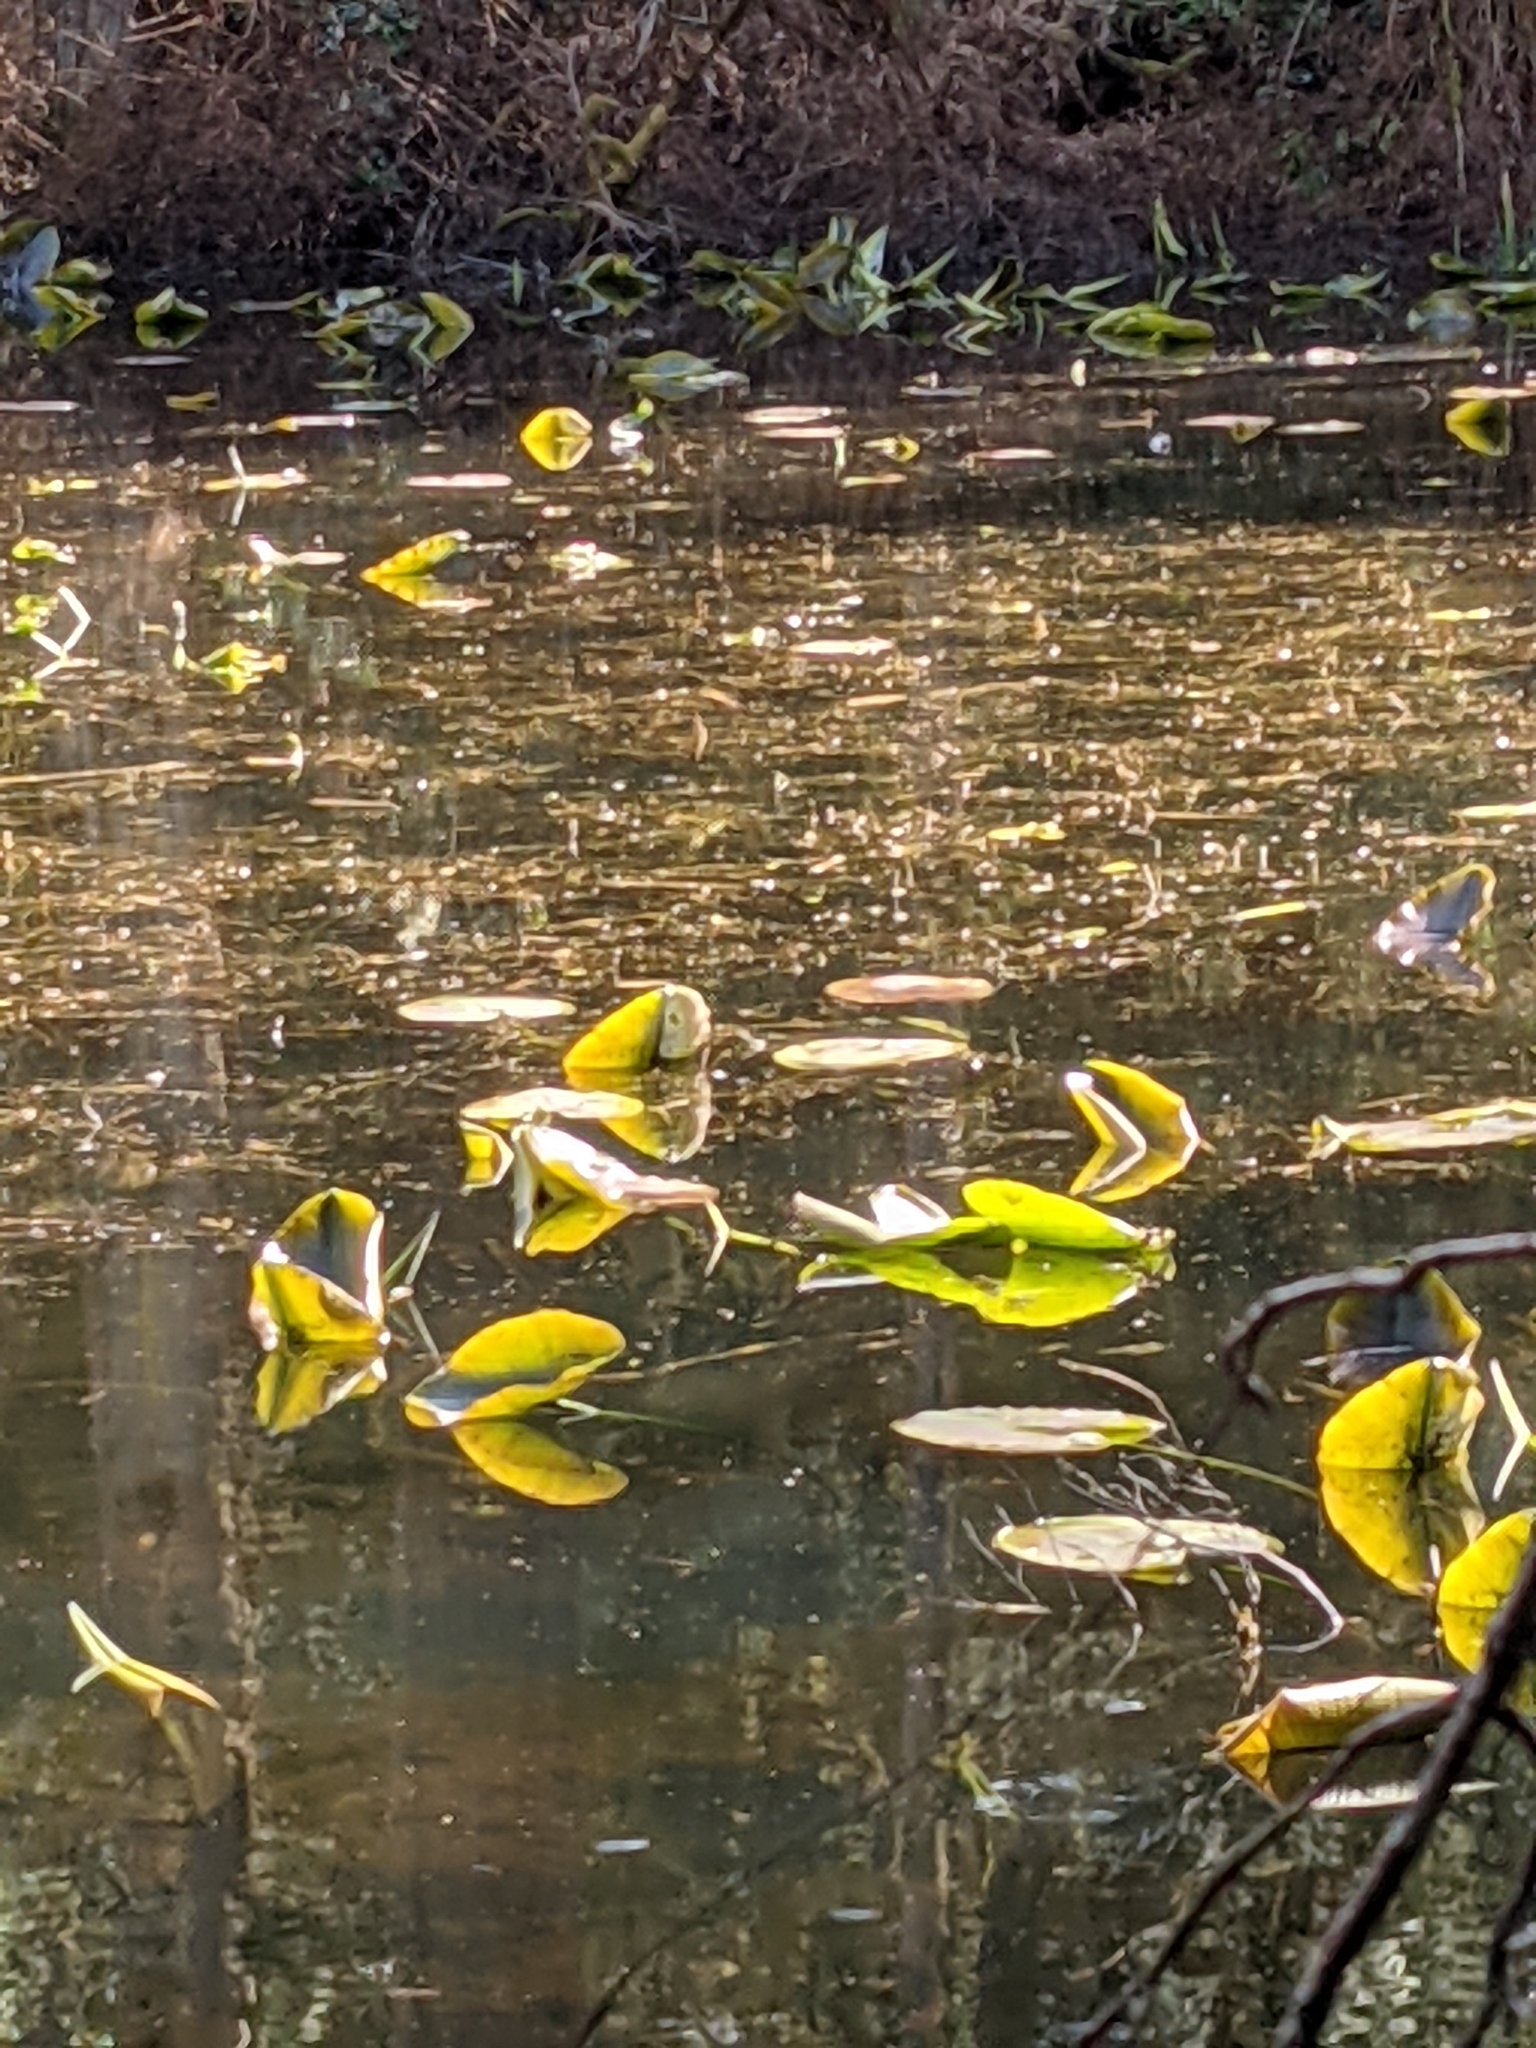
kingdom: Plantae
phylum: Tracheophyta
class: Magnoliopsida
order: Nymphaeales
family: Nymphaeaceae
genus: Nuphar
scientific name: Nuphar polysepala
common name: Rocky mountain cow-lily
